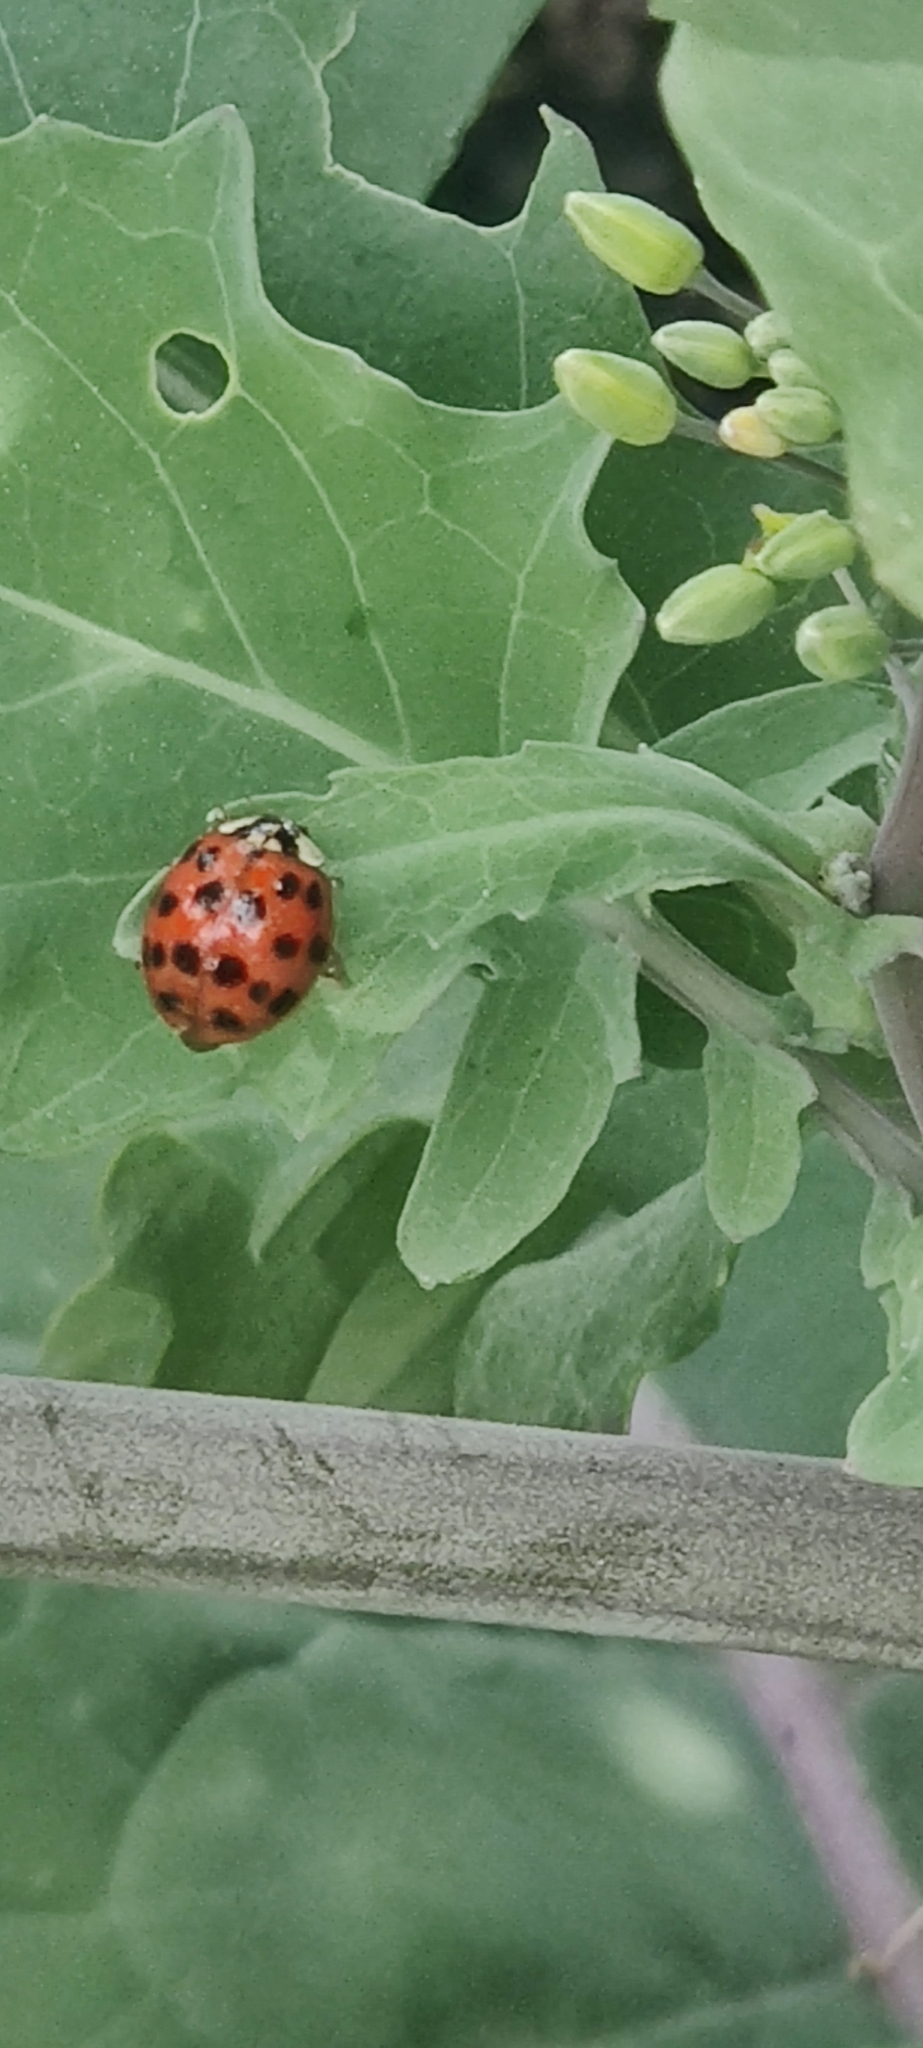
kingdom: Animalia
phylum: Arthropoda
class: Insecta
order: Coleoptera
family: Coccinellidae
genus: Harmonia
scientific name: Harmonia axyridis
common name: Harlequin ladybird
